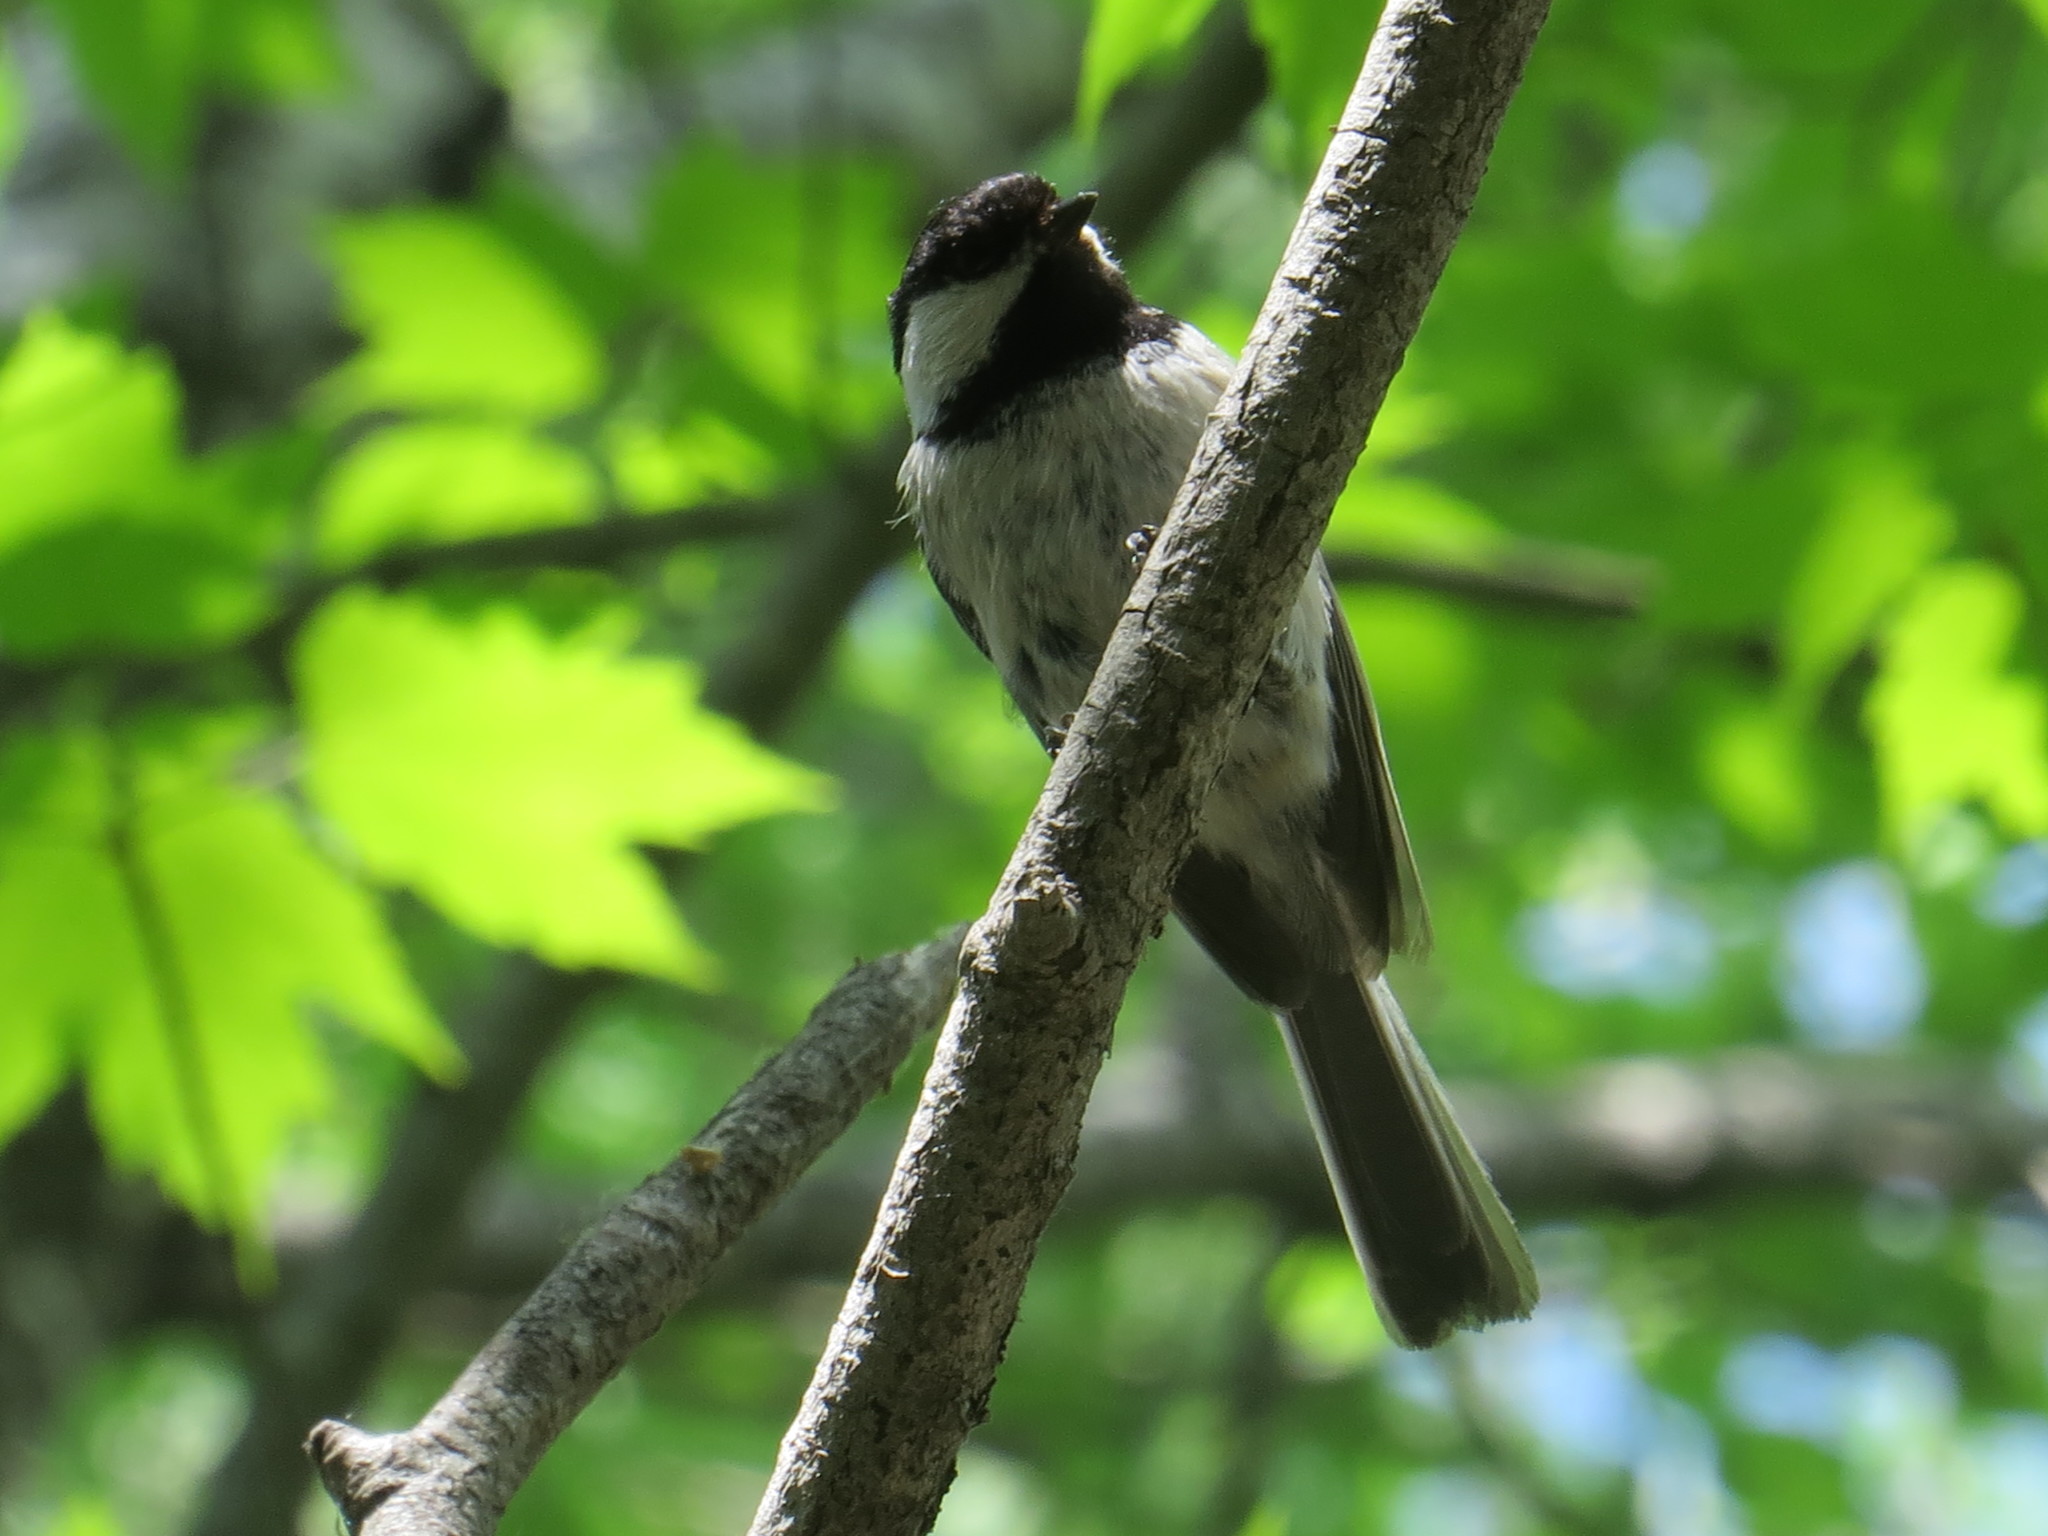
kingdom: Animalia
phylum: Chordata
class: Aves
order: Passeriformes
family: Paridae
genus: Poecile
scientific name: Poecile atricapillus
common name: Black-capped chickadee
